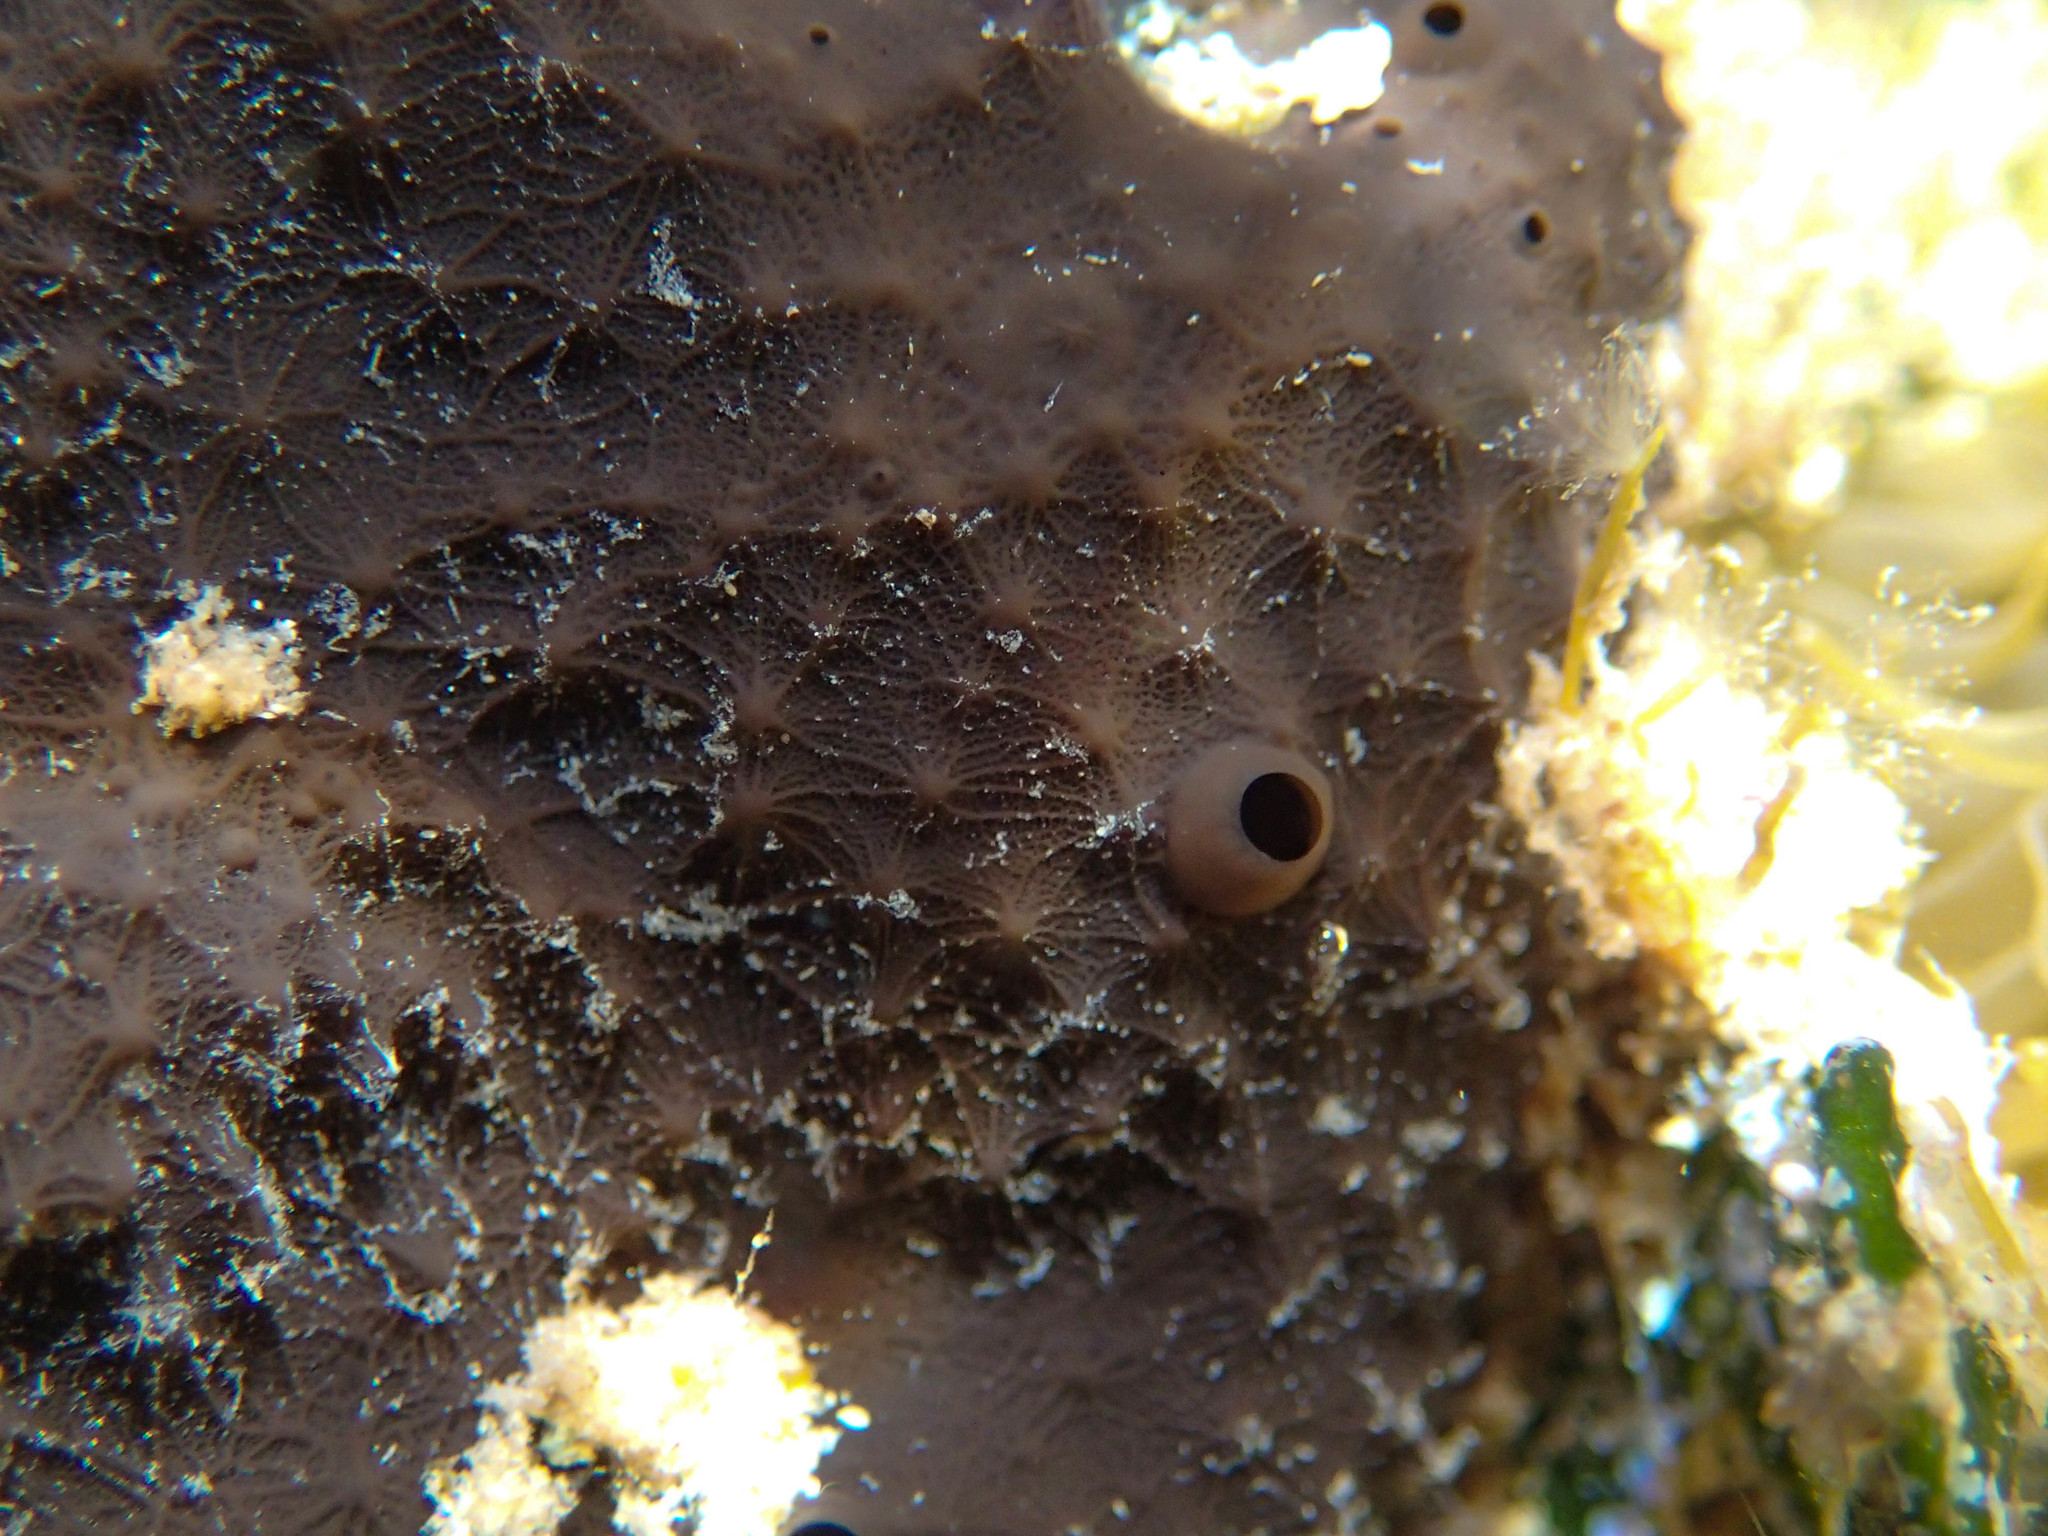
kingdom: Animalia
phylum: Porifera
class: Demospongiae
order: Dictyoceratida
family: Irciniidae
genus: Sarcotragus
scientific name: Sarcotragus spinosulus
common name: Black leather sponge
